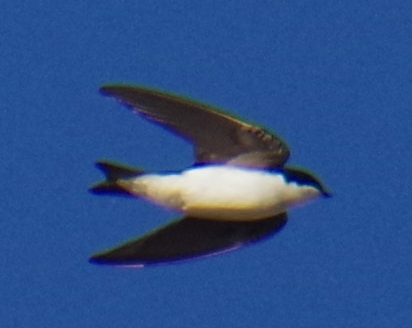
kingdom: Animalia
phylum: Chordata
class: Aves
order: Passeriformes
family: Hirundinidae
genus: Tachycineta
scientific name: Tachycineta bicolor
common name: Tree swallow
